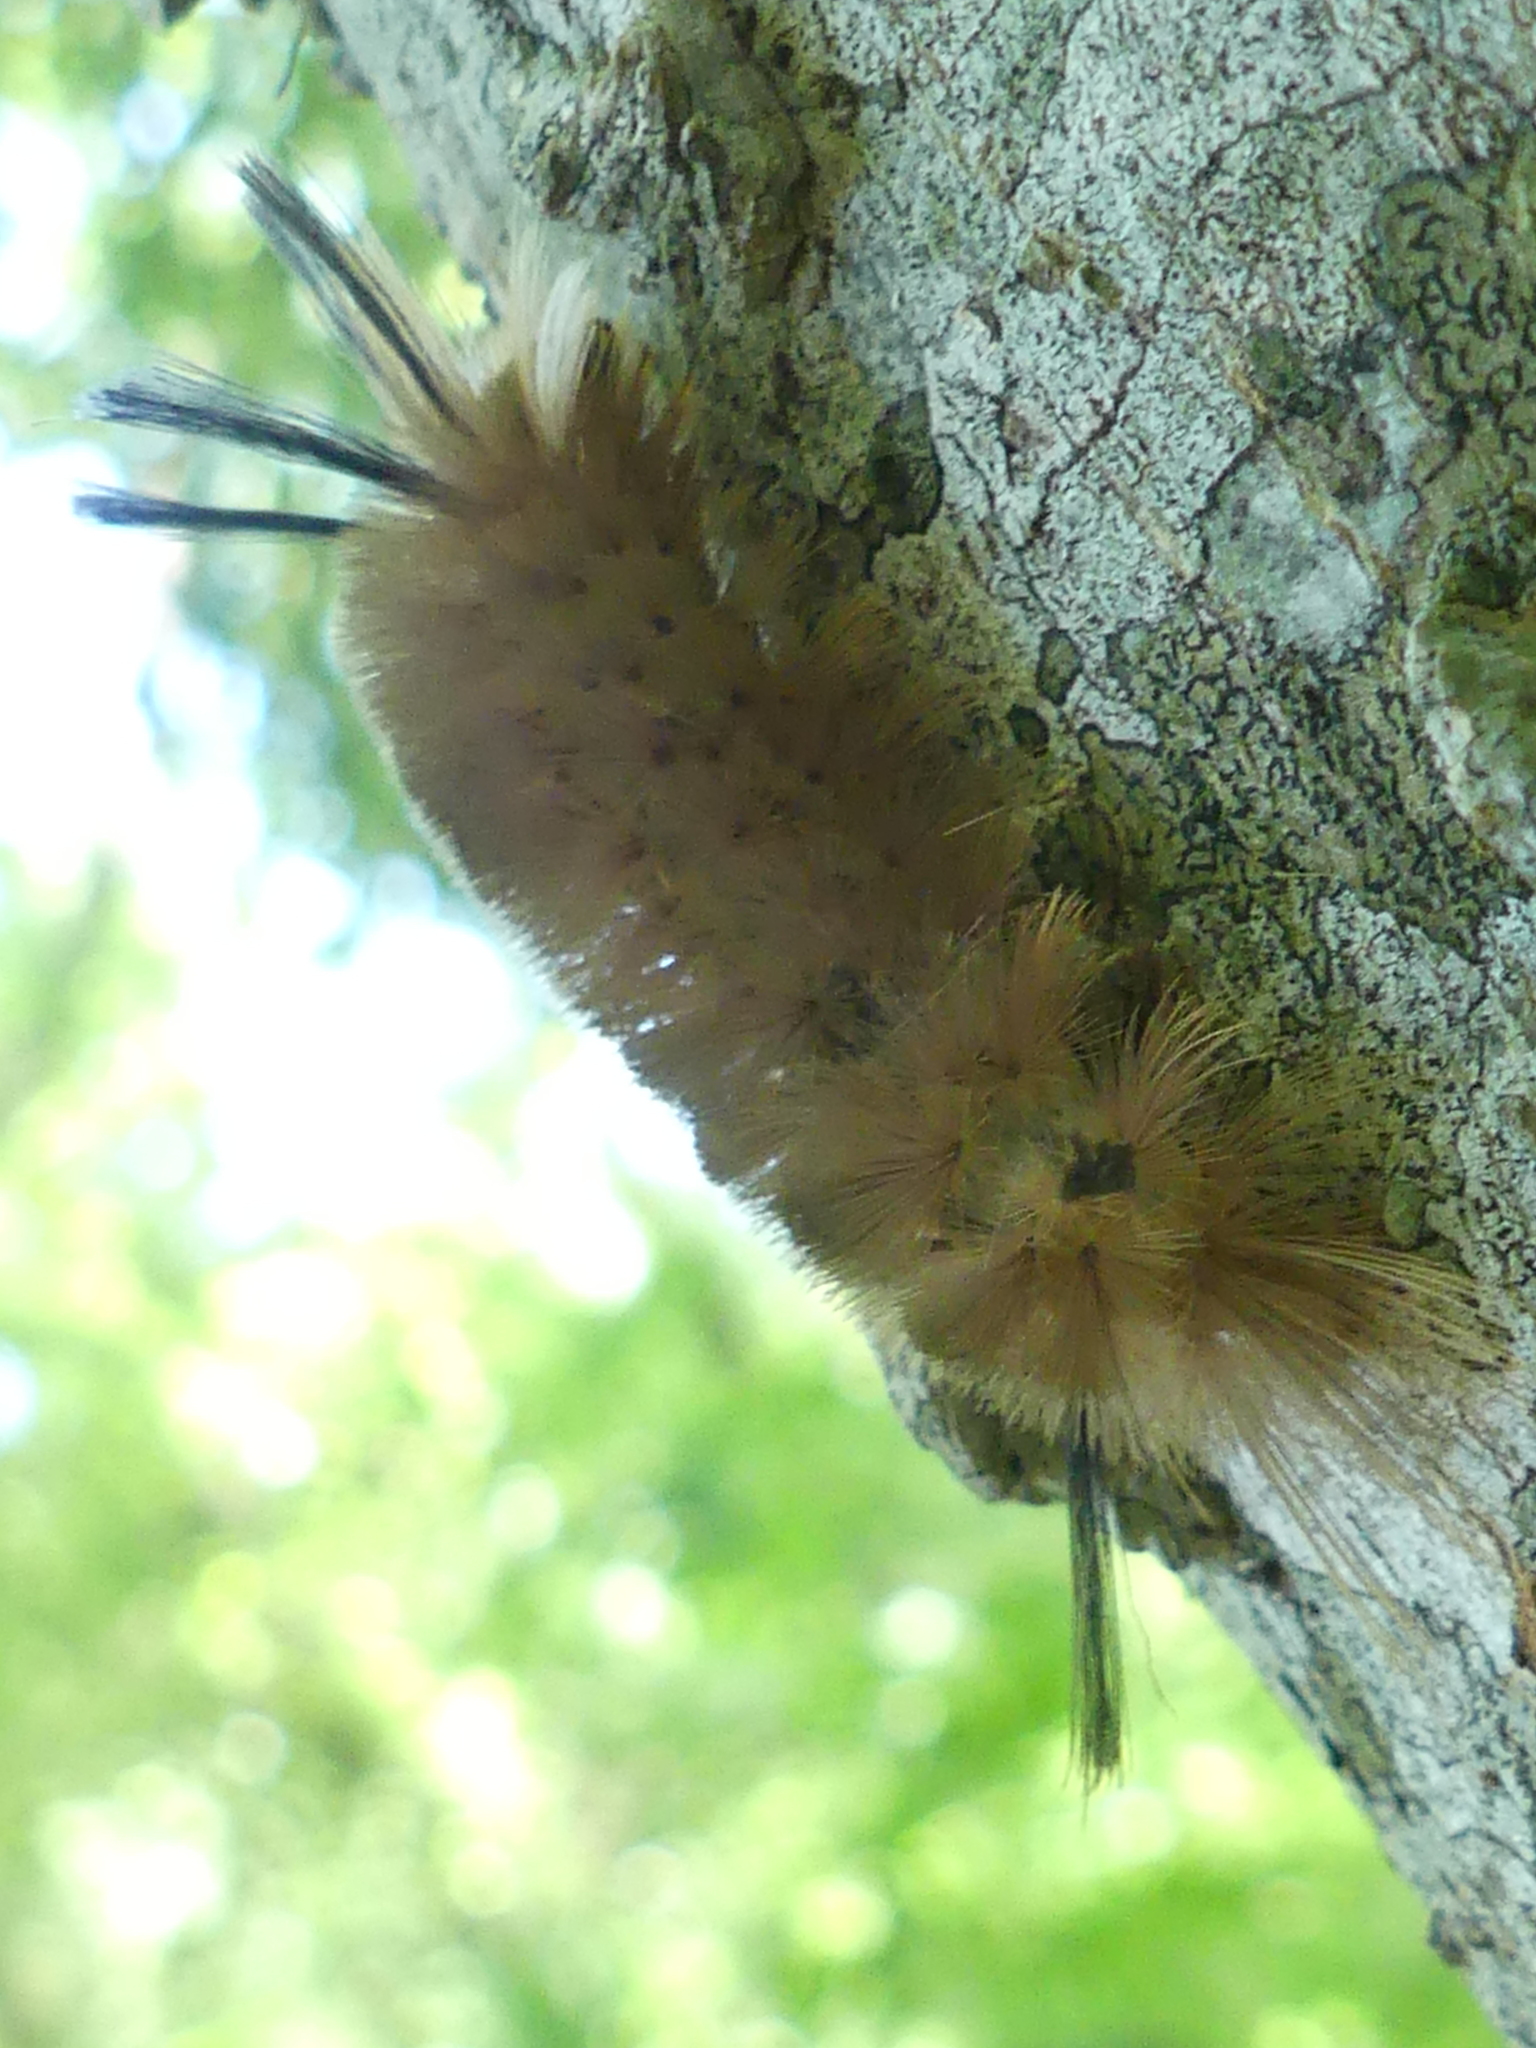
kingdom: Animalia
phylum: Arthropoda
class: Insecta
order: Lepidoptera
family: Erebidae
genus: Halysidota
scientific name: Halysidota tessellaris
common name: Banded tussock moth
